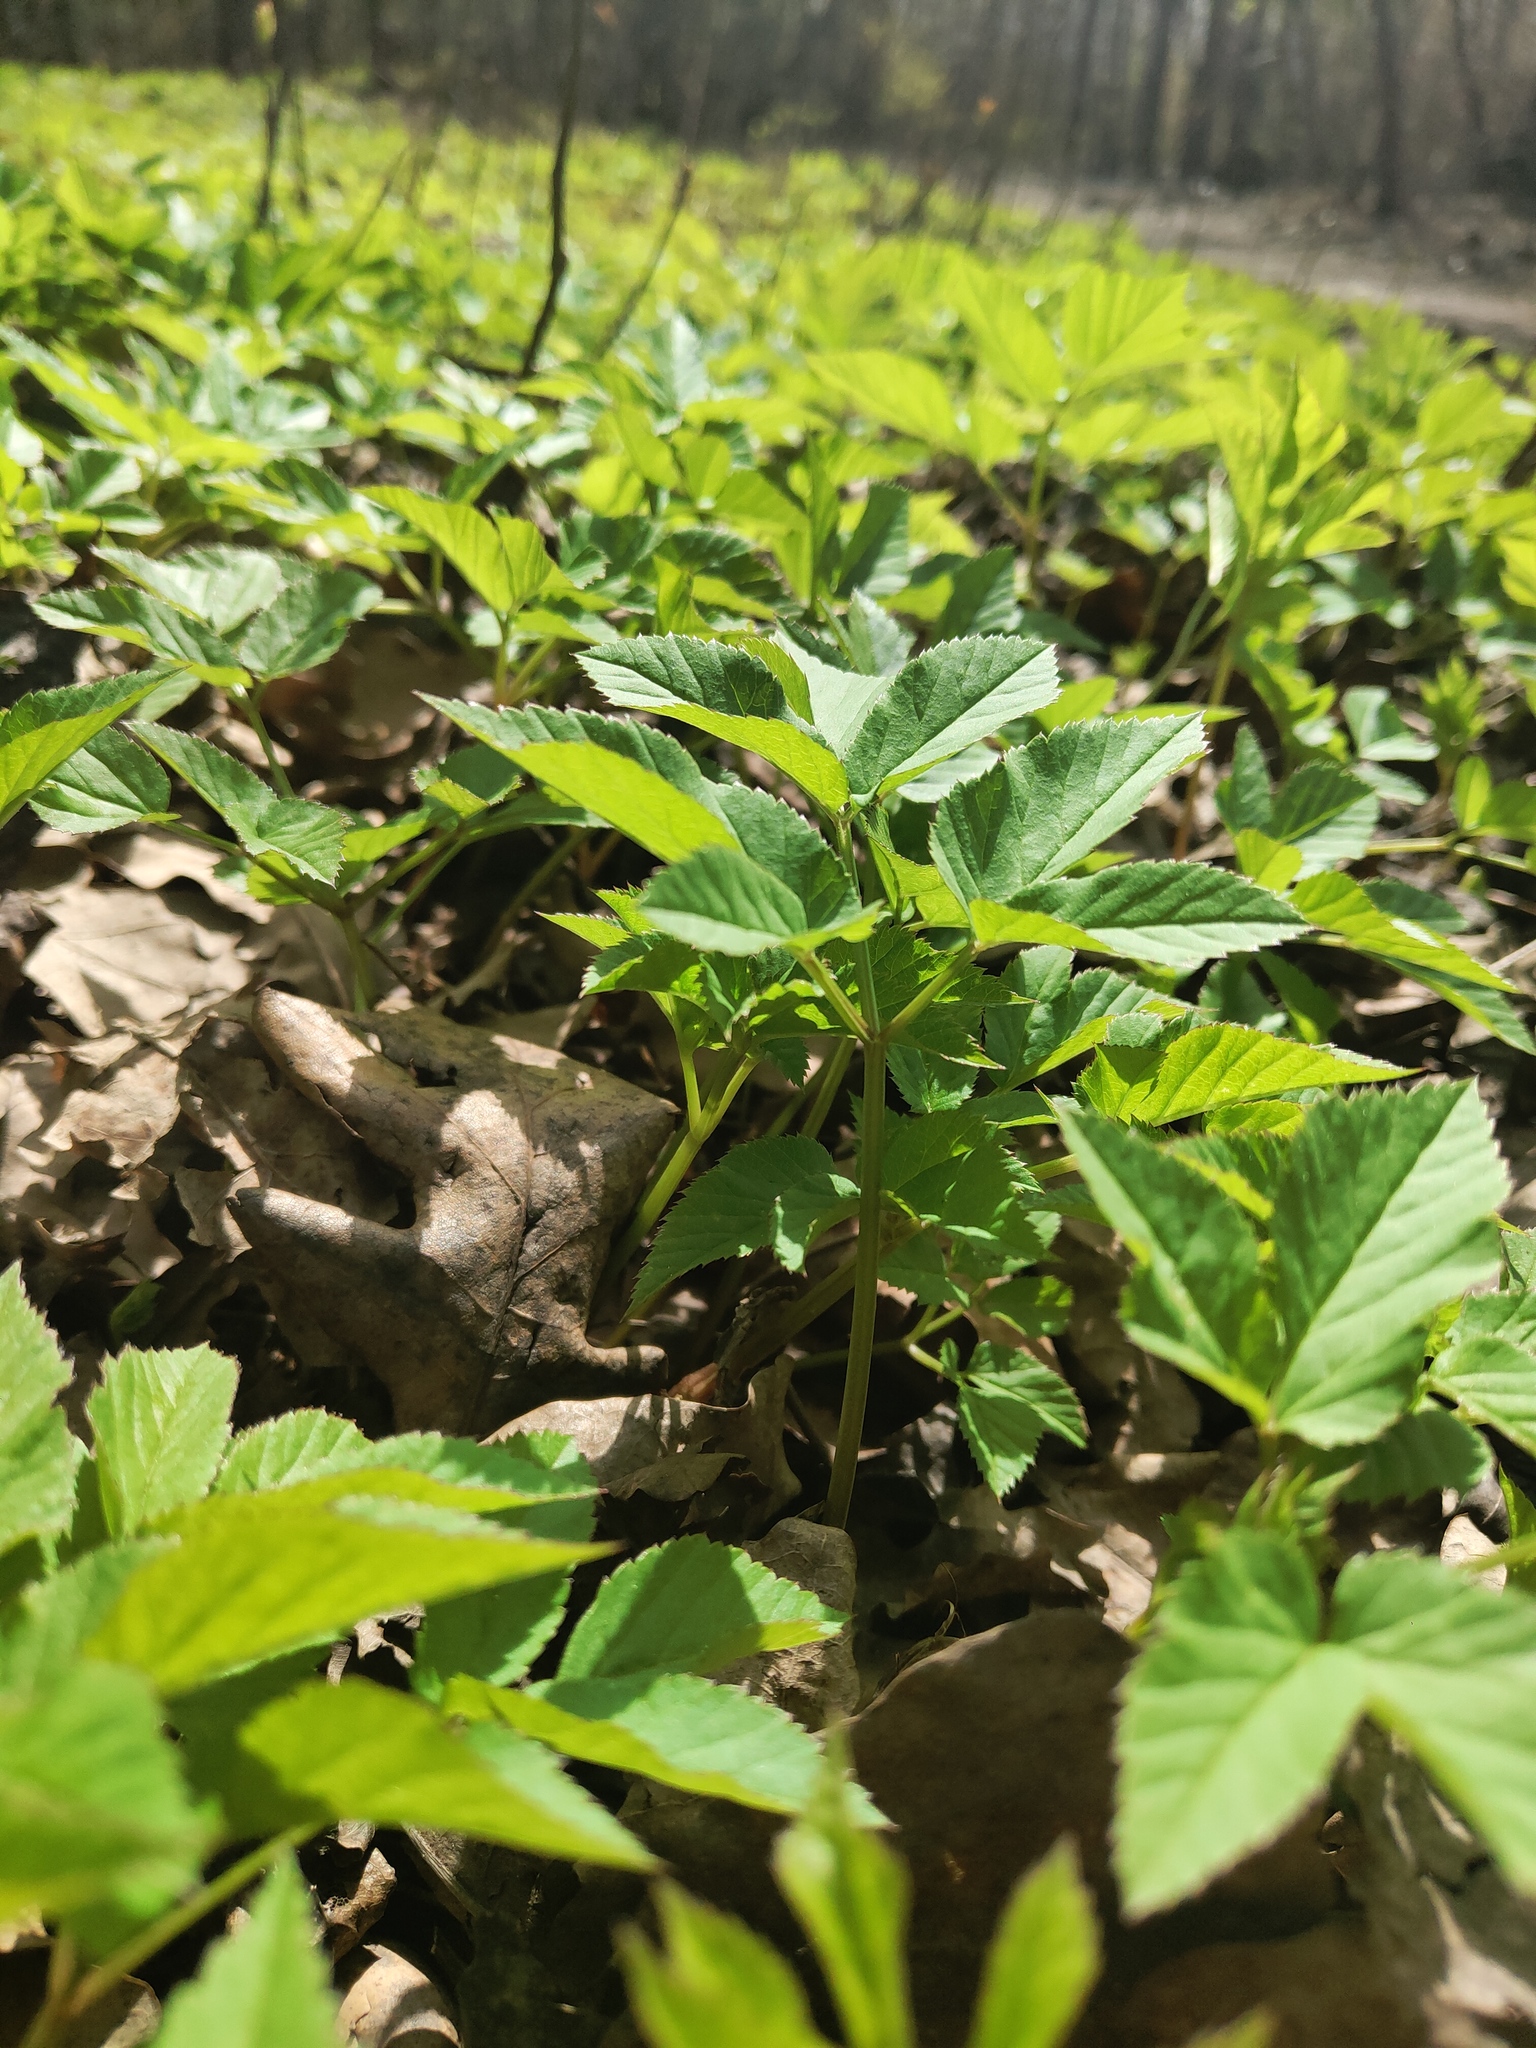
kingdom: Plantae
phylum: Tracheophyta
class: Magnoliopsida
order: Apiales
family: Apiaceae
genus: Aegopodium
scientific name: Aegopodium podagraria
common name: Ground-elder
